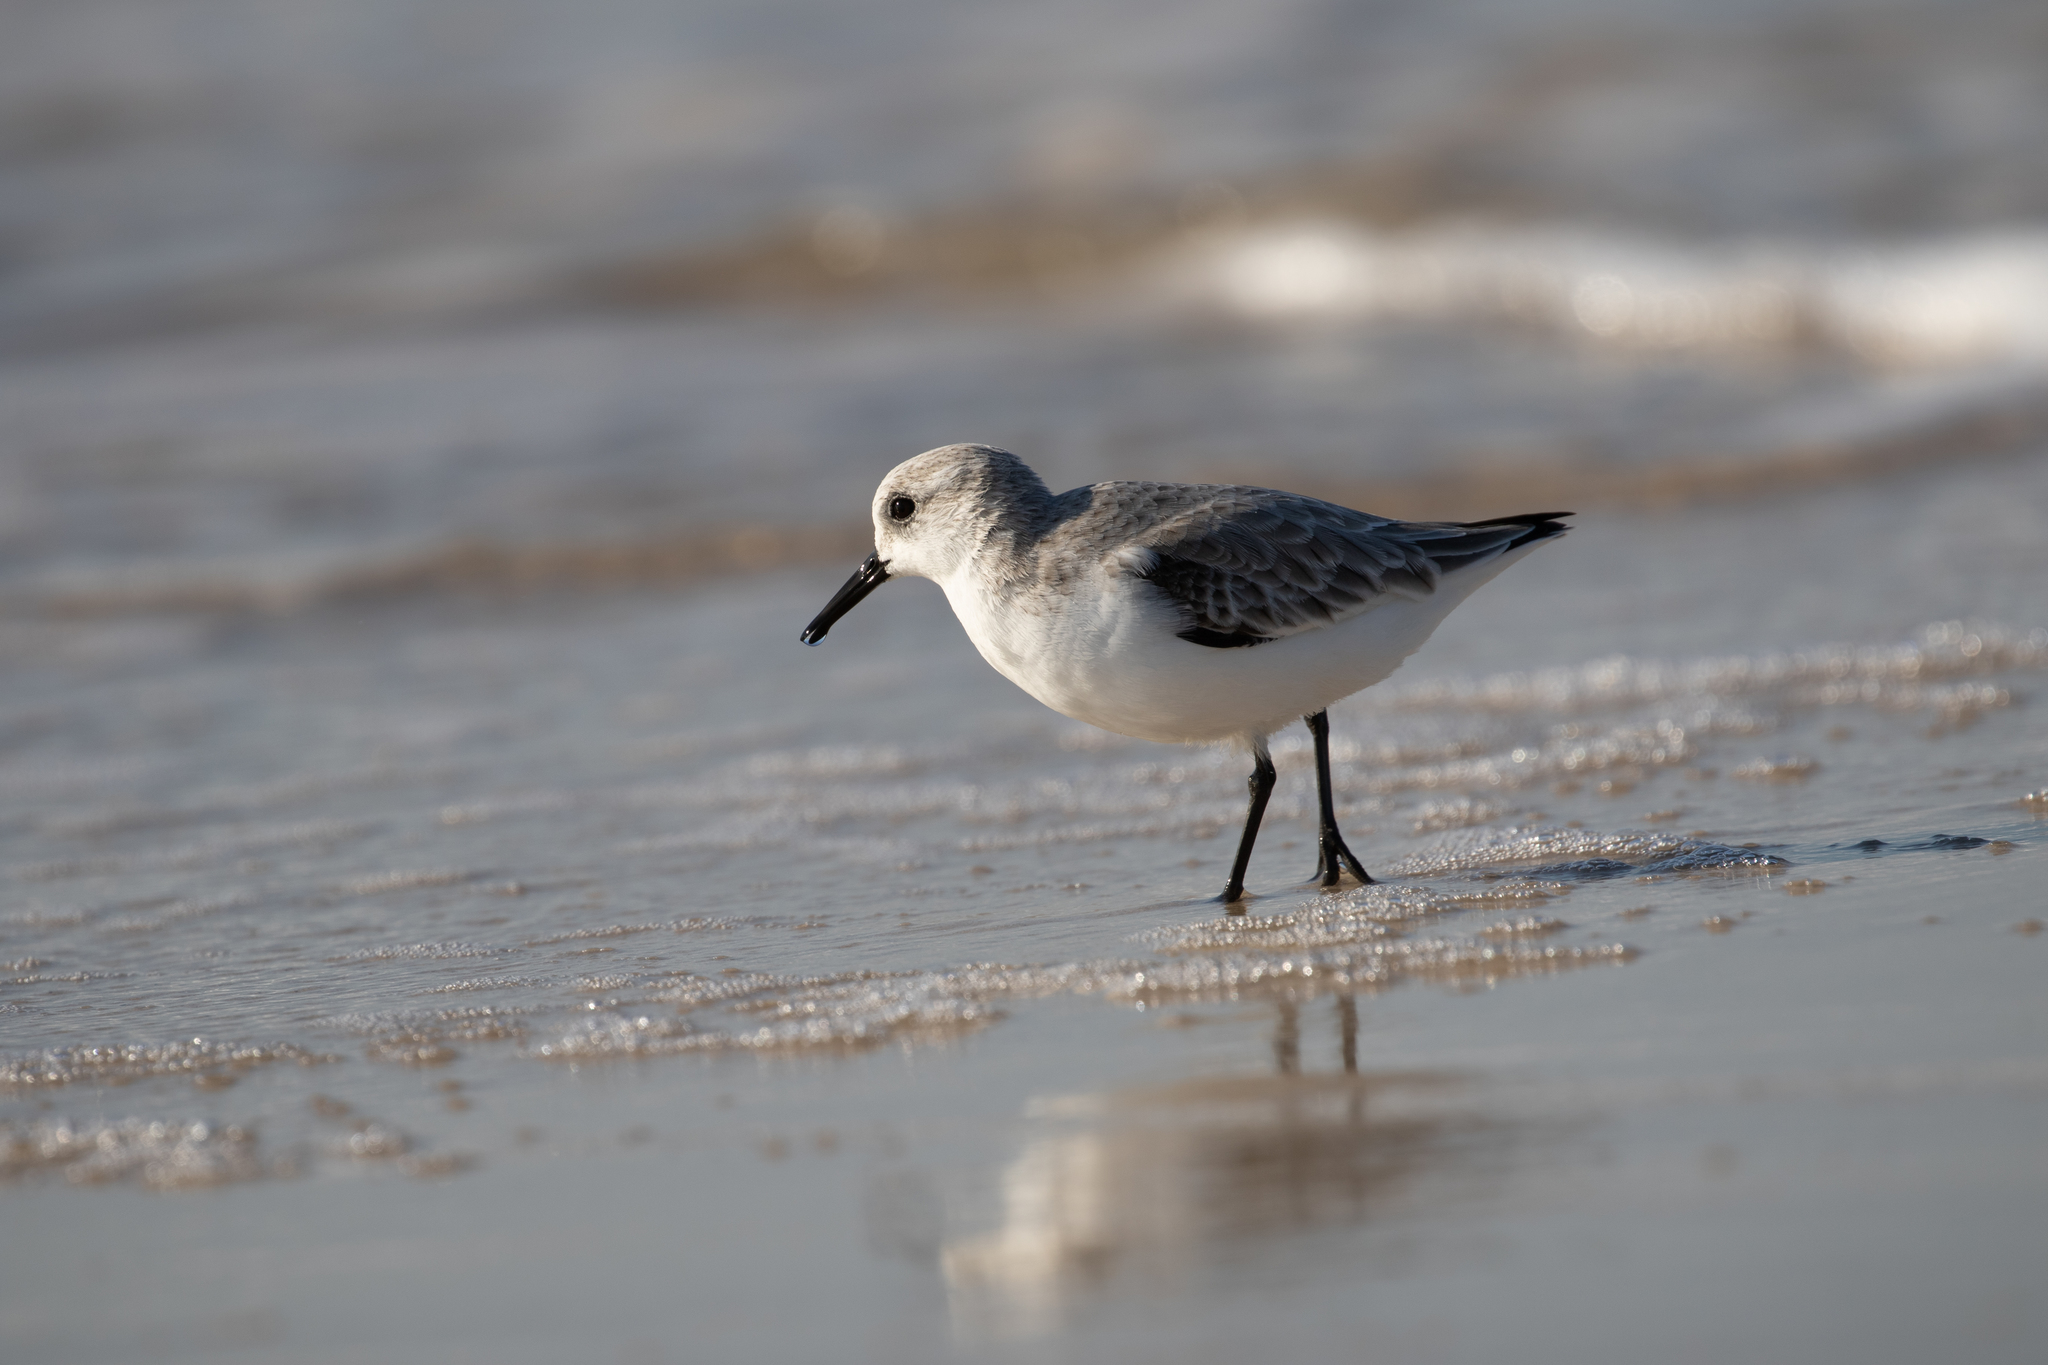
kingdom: Animalia
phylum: Chordata
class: Aves
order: Charadriiformes
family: Scolopacidae
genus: Calidris
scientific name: Calidris alba
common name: Sanderling
